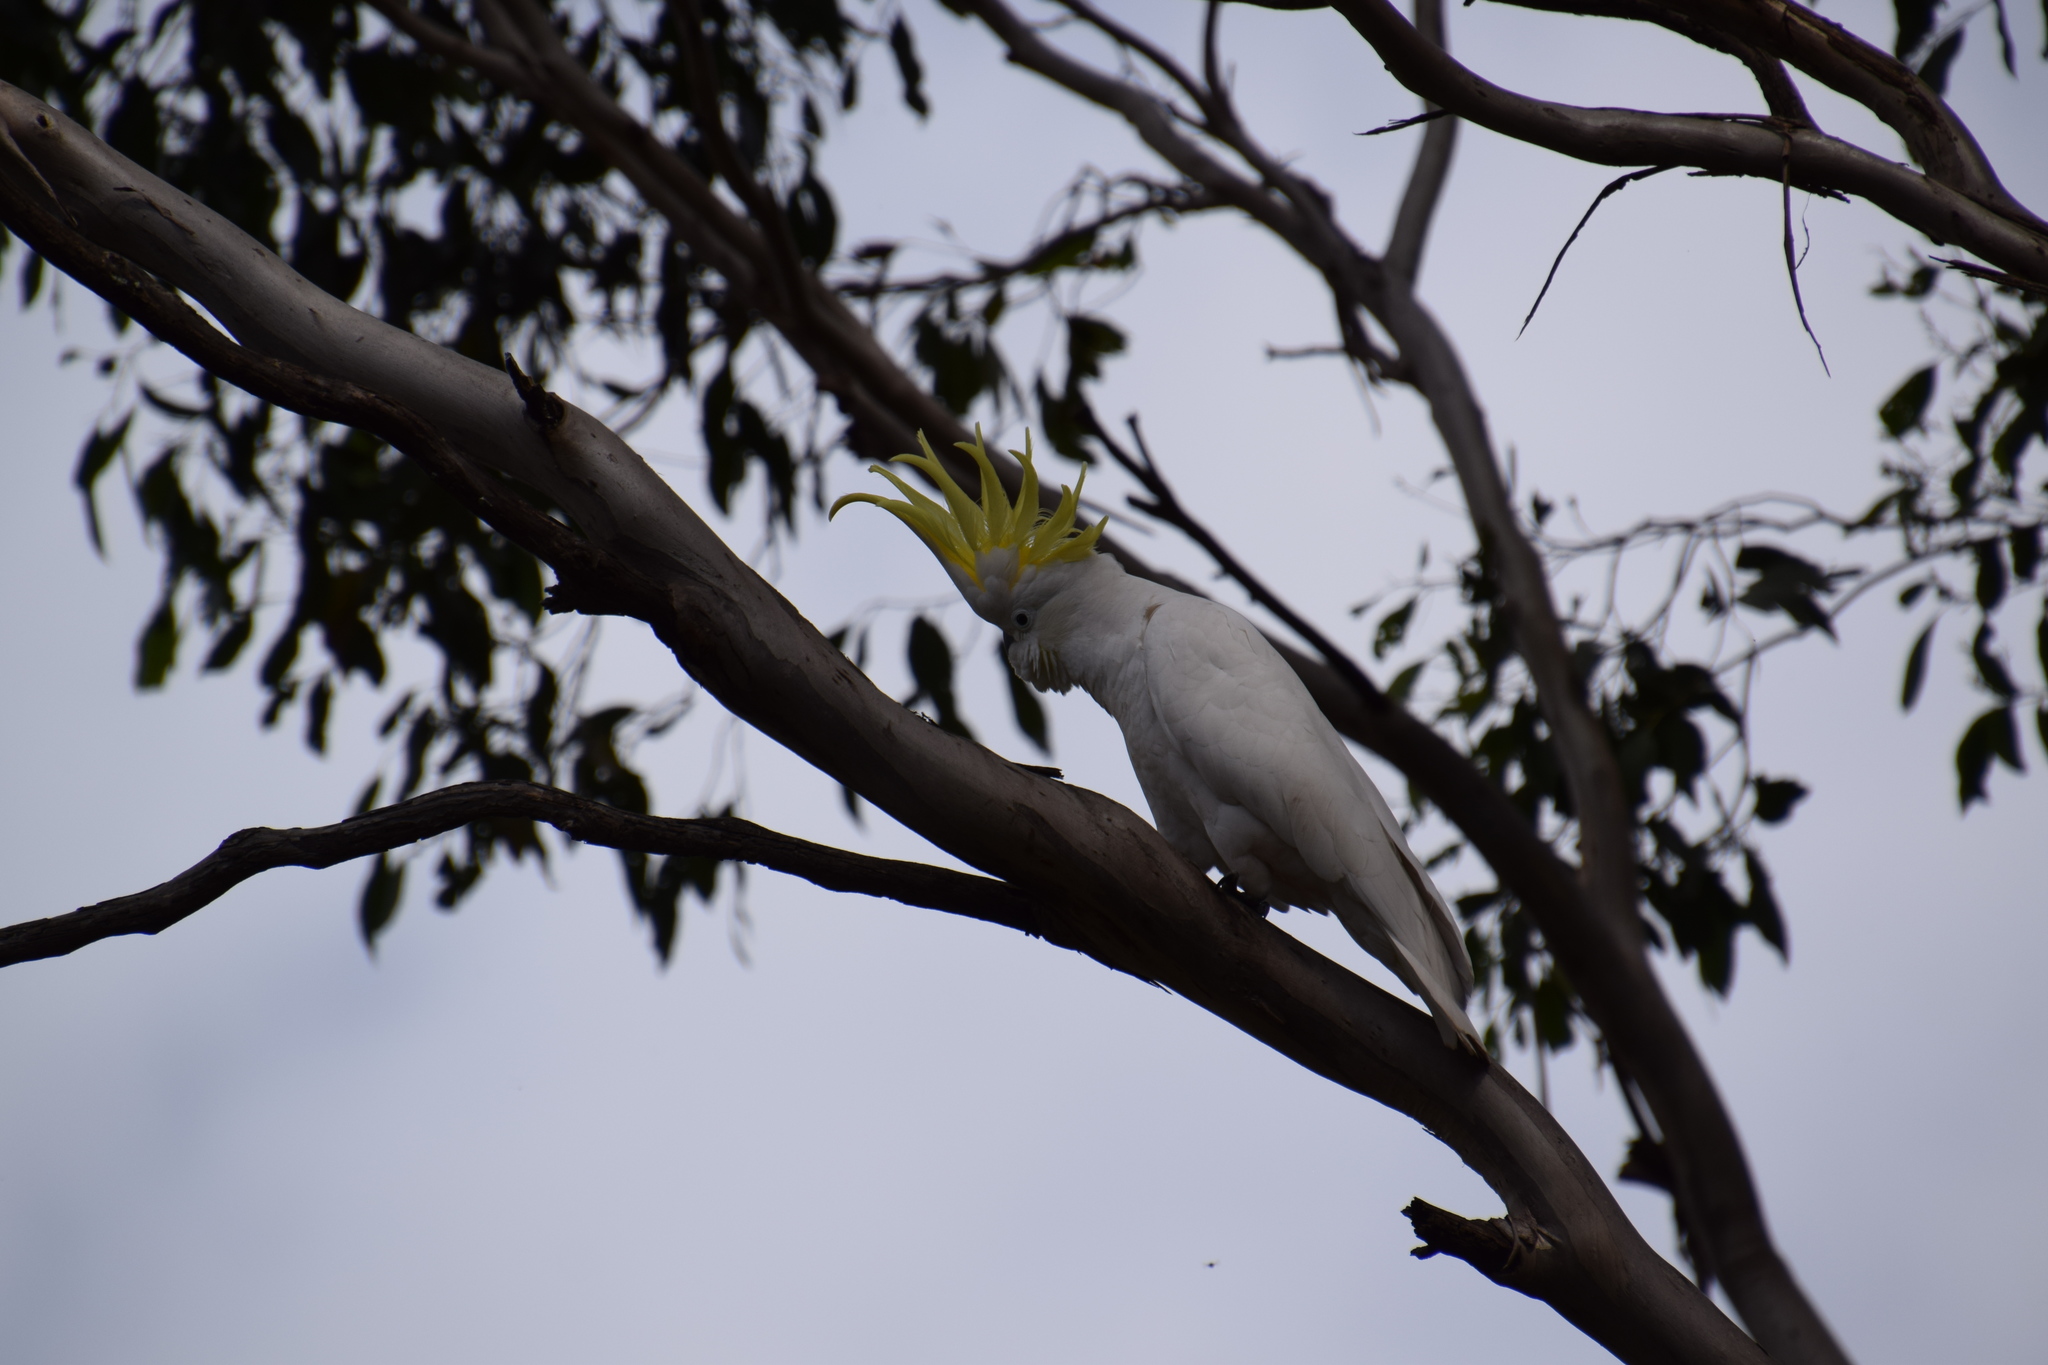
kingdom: Animalia
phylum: Chordata
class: Aves
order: Psittaciformes
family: Psittacidae
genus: Cacatua
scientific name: Cacatua galerita
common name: Sulphur-crested cockatoo
